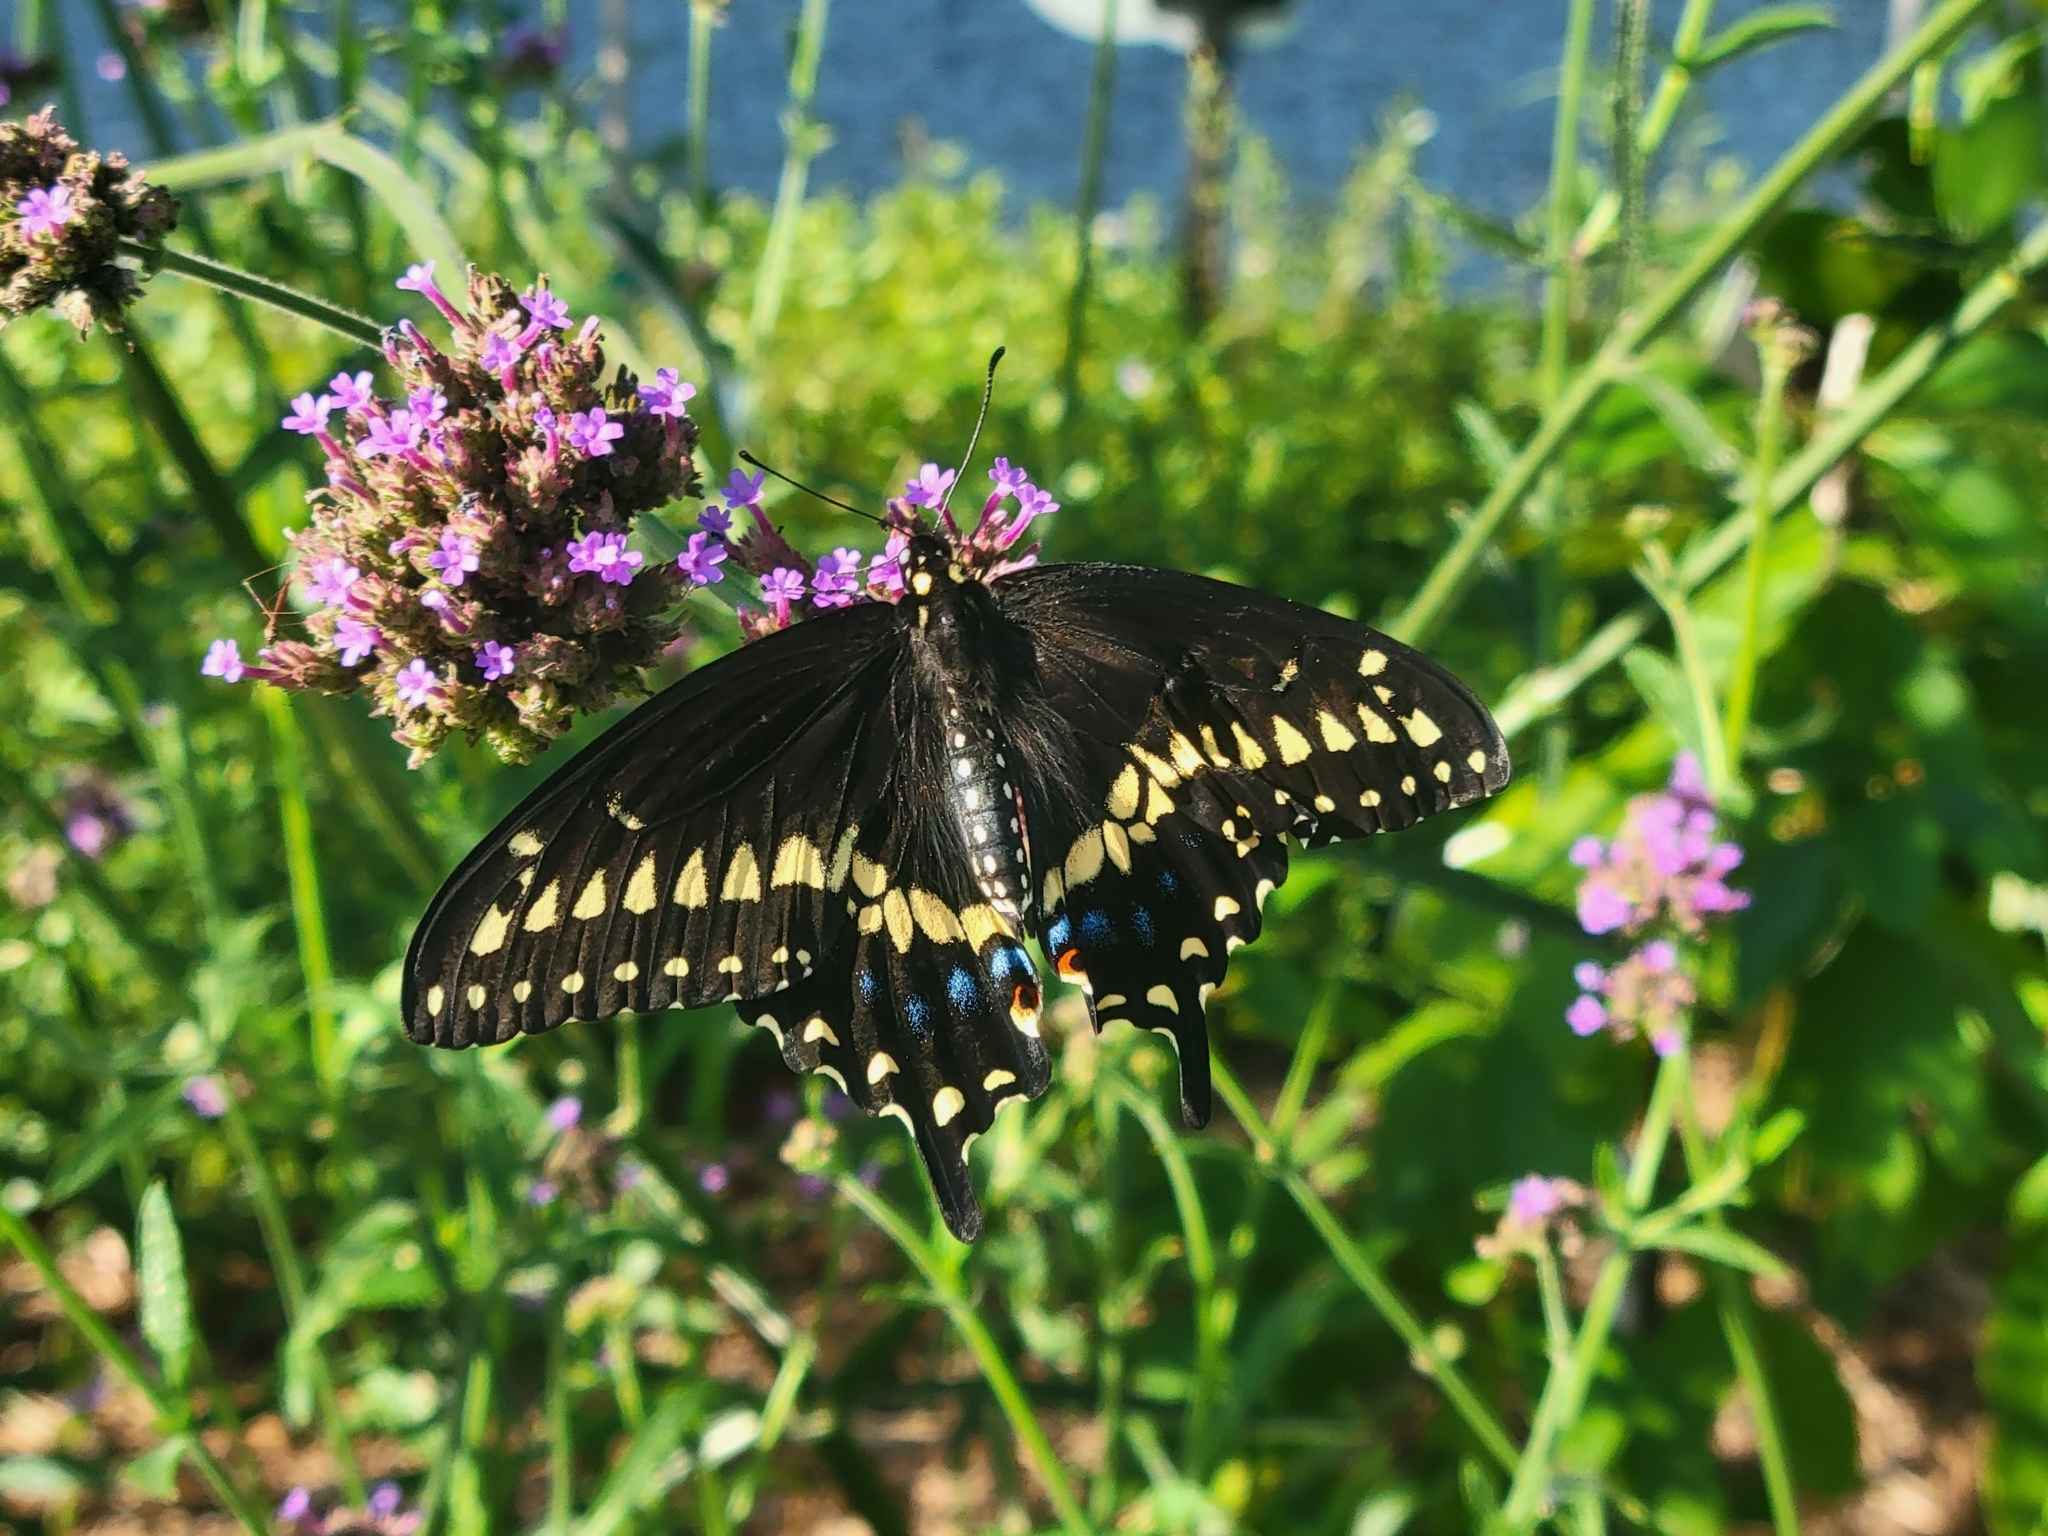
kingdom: Animalia
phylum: Arthropoda
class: Insecta
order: Lepidoptera
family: Papilionidae
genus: Papilio
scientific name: Papilio polyxenes
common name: Black swallowtail
